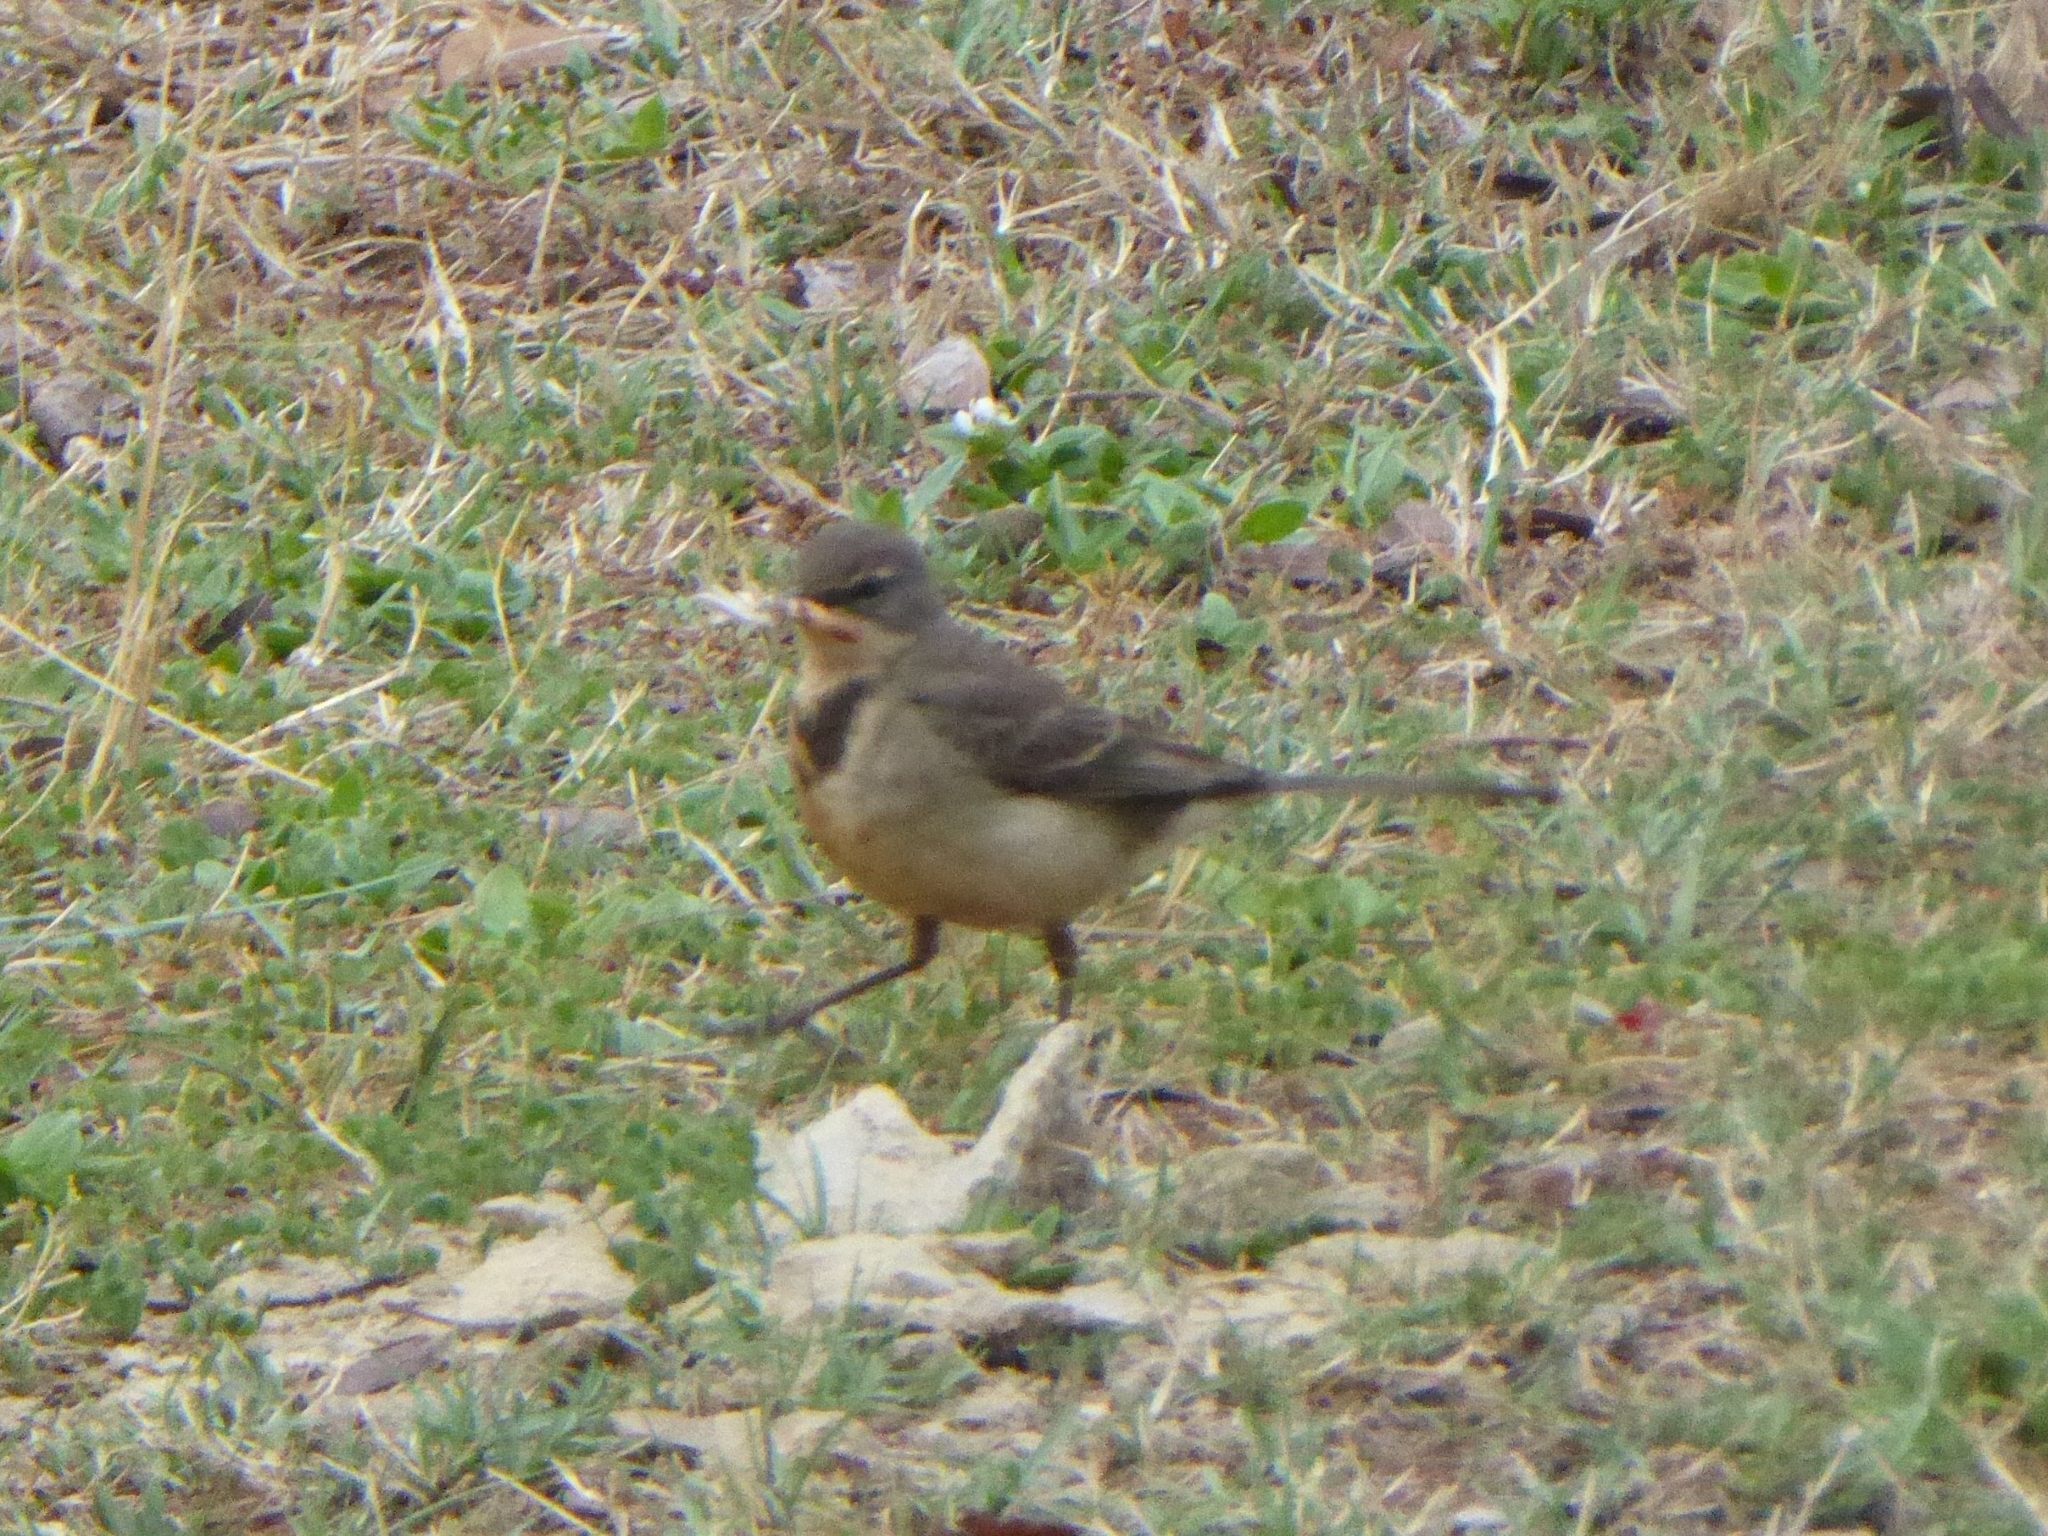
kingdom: Animalia
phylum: Chordata
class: Aves
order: Passeriformes
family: Motacillidae
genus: Motacilla
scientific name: Motacilla capensis
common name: Cape wagtail
